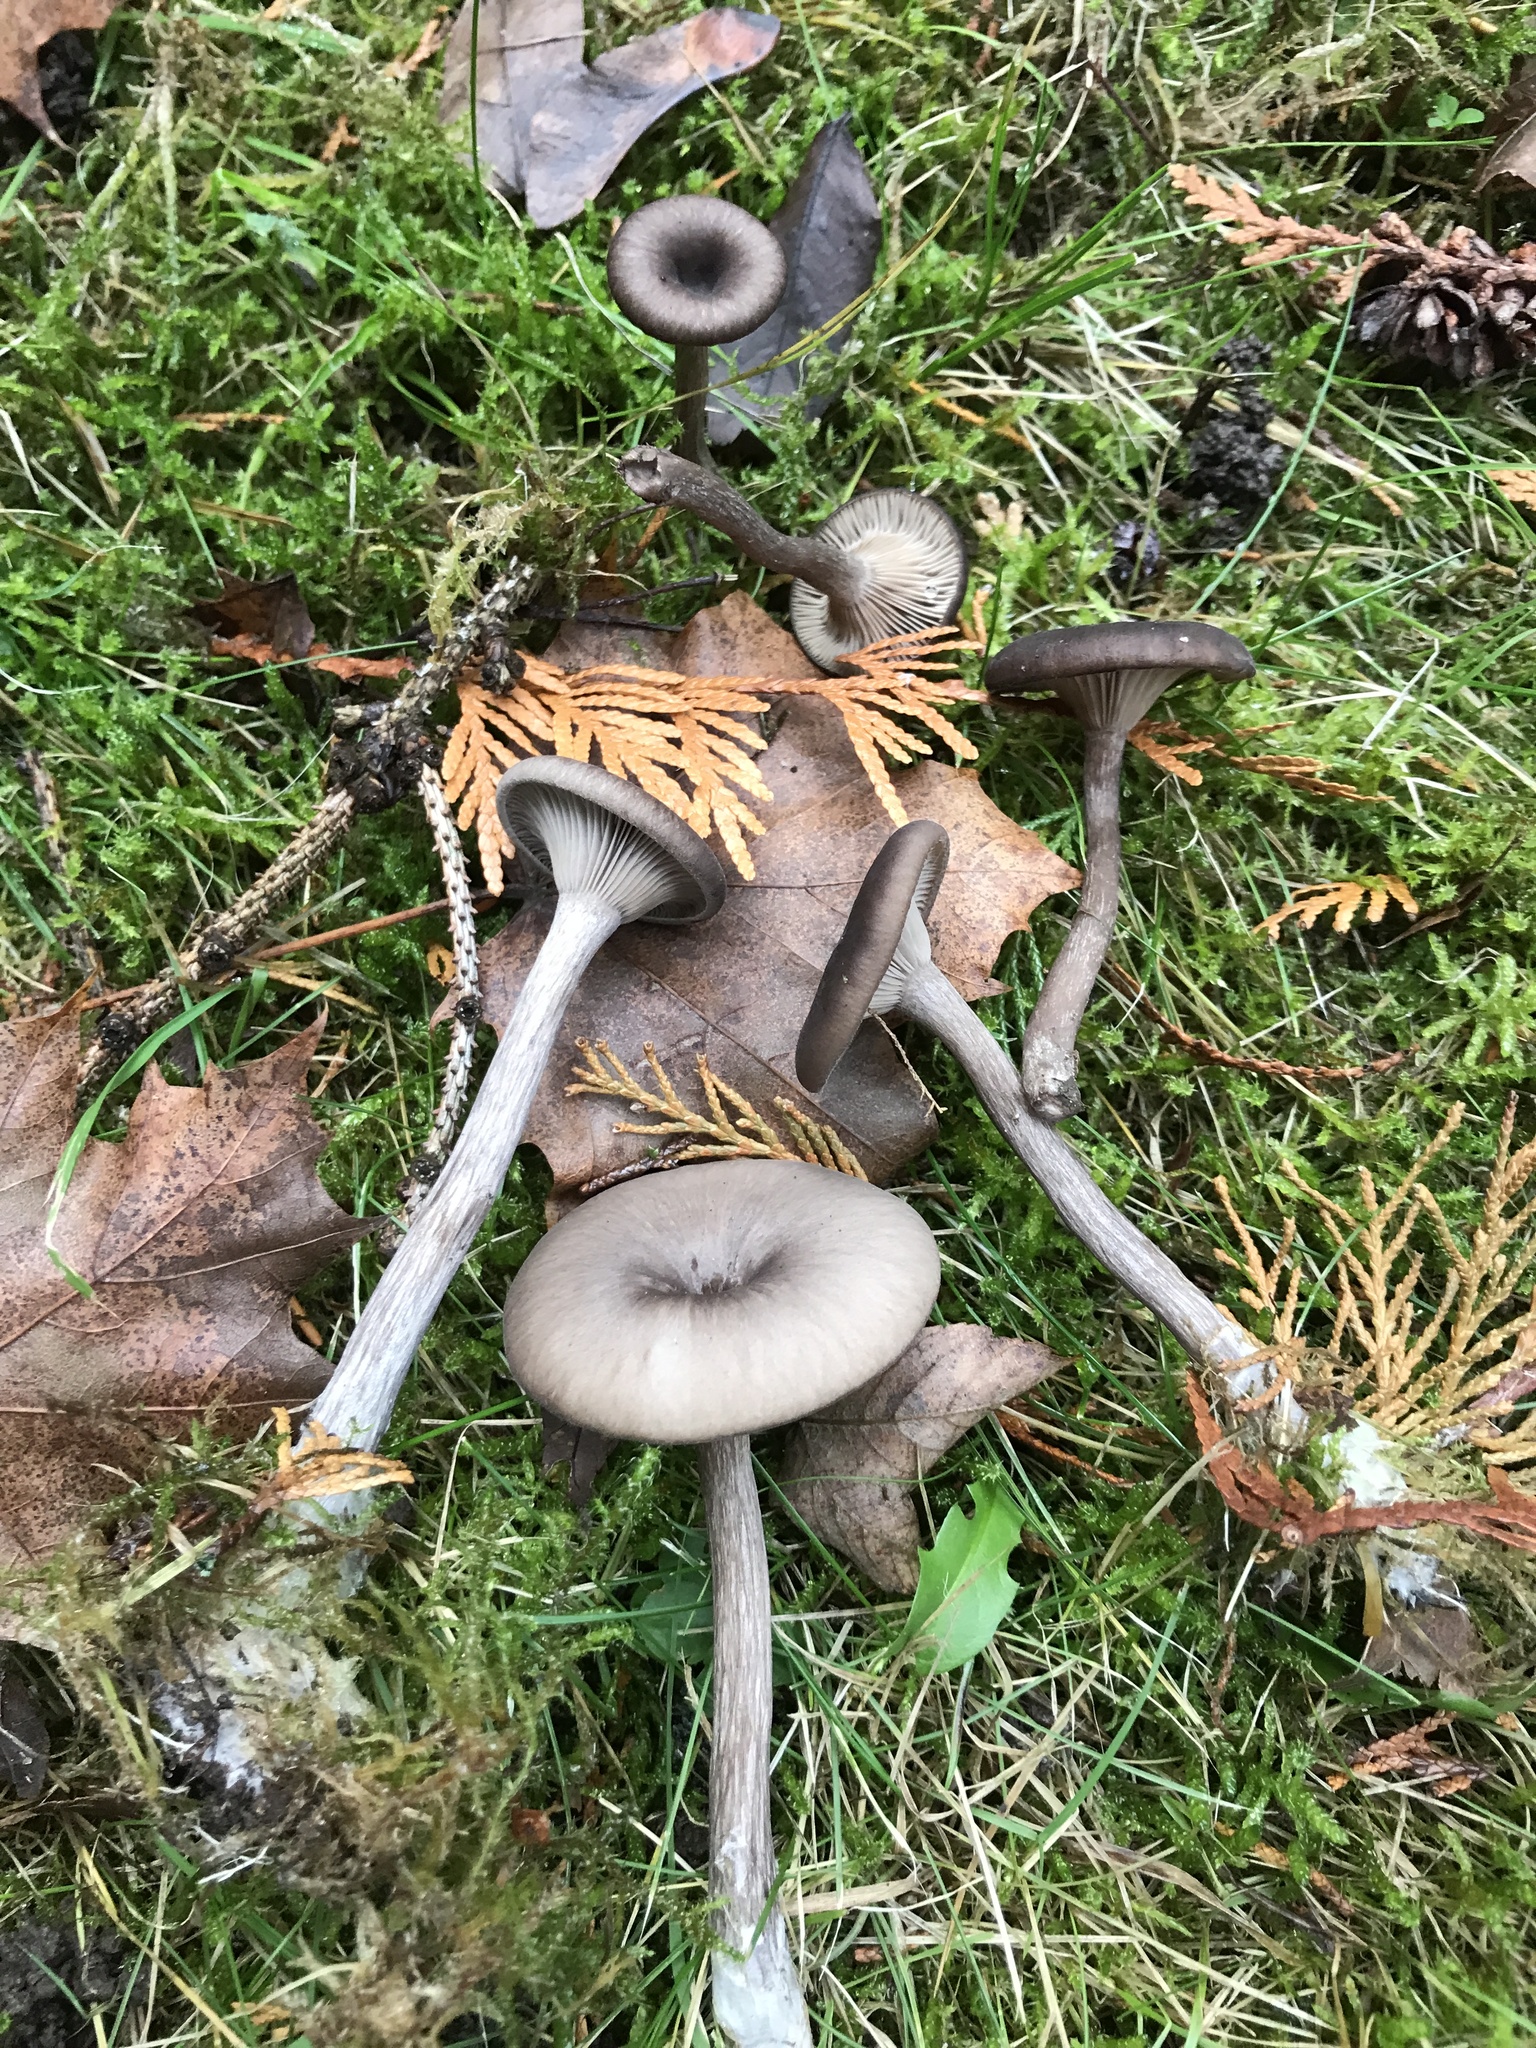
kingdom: Fungi
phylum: Basidiomycota
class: Agaricomycetes
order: Agaricales
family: Pseudoclitocybaceae
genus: Pseudoclitocybe
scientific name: Pseudoclitocybe cyathiformis
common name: Goblet
